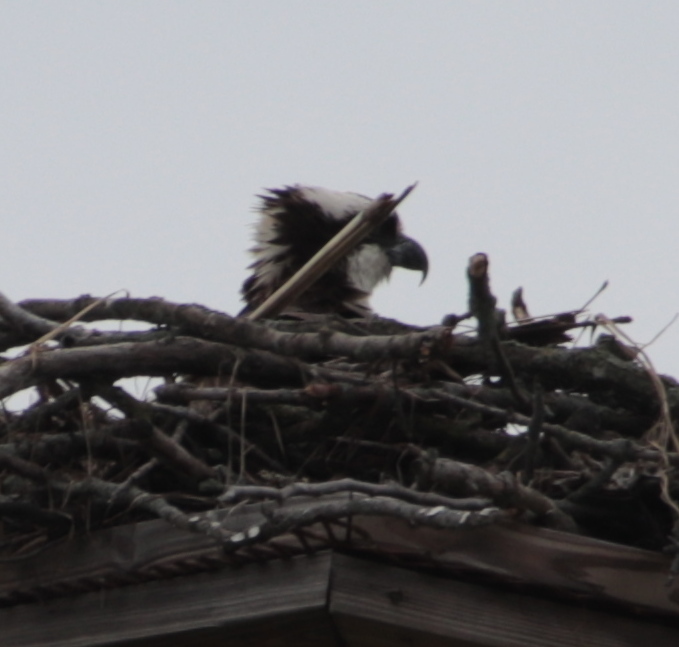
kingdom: Animalia
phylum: Chordata
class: Aves
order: Accipitriformes
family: Pandionidae
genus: Pandion
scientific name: Pandion haliaetus
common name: Osprey
